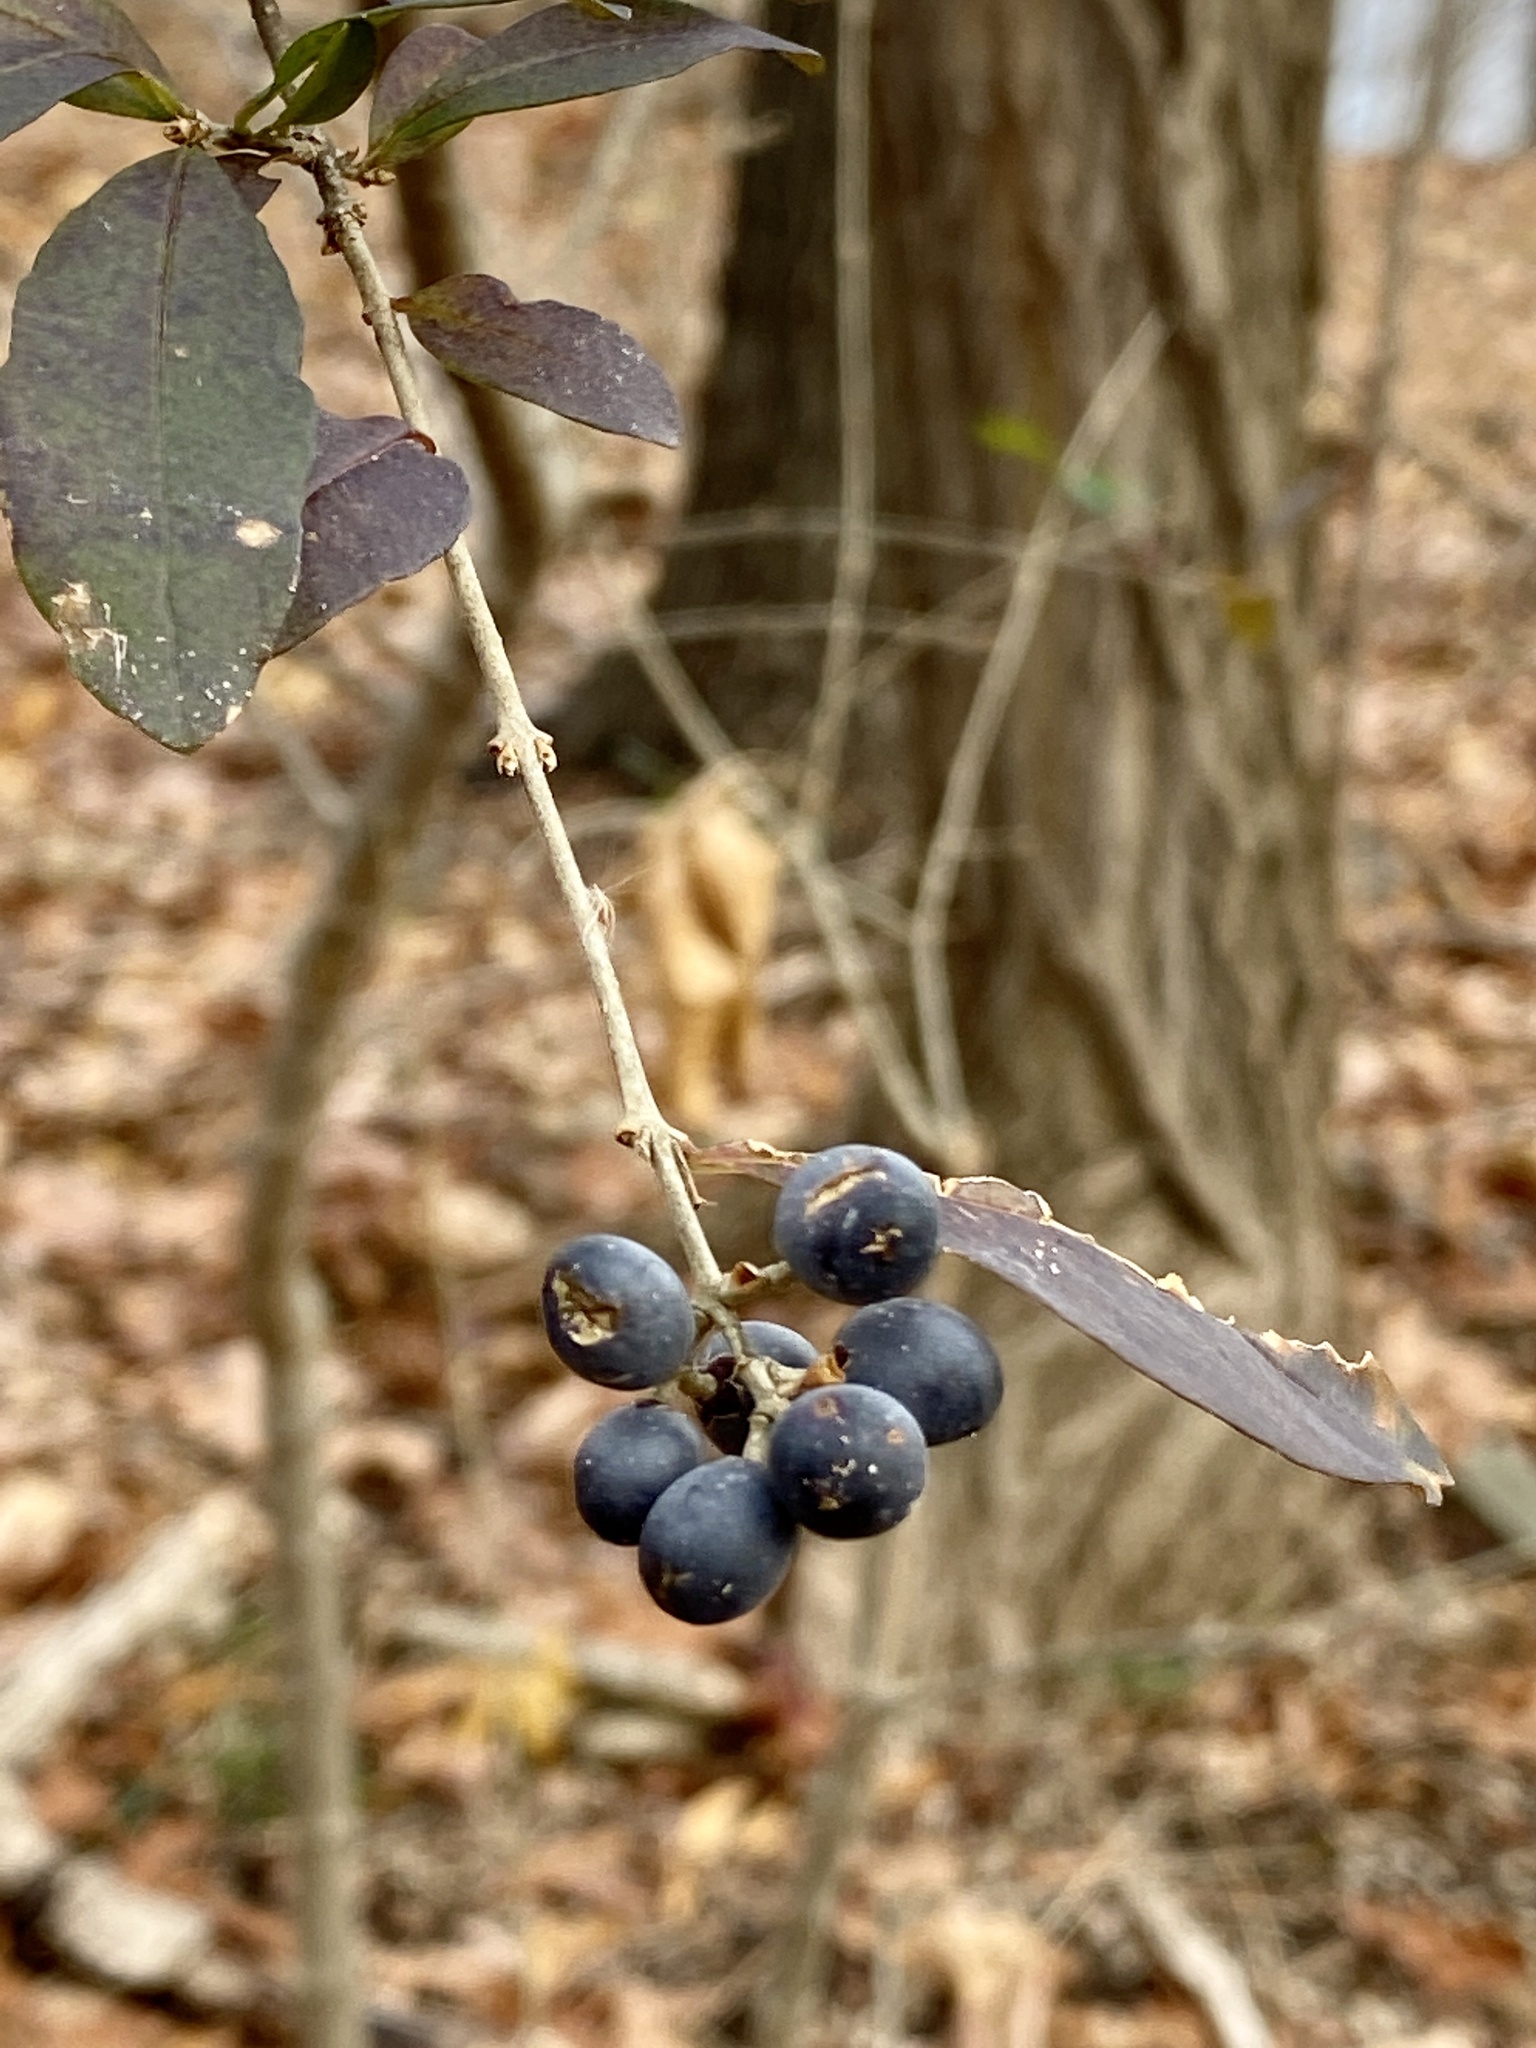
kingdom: Plantae
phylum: Tracheophyta
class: Magnoliopsida
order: Lamiales
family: Oleaceae
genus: Ligustrum
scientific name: Ligustrum obtusifolium
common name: Border privet
